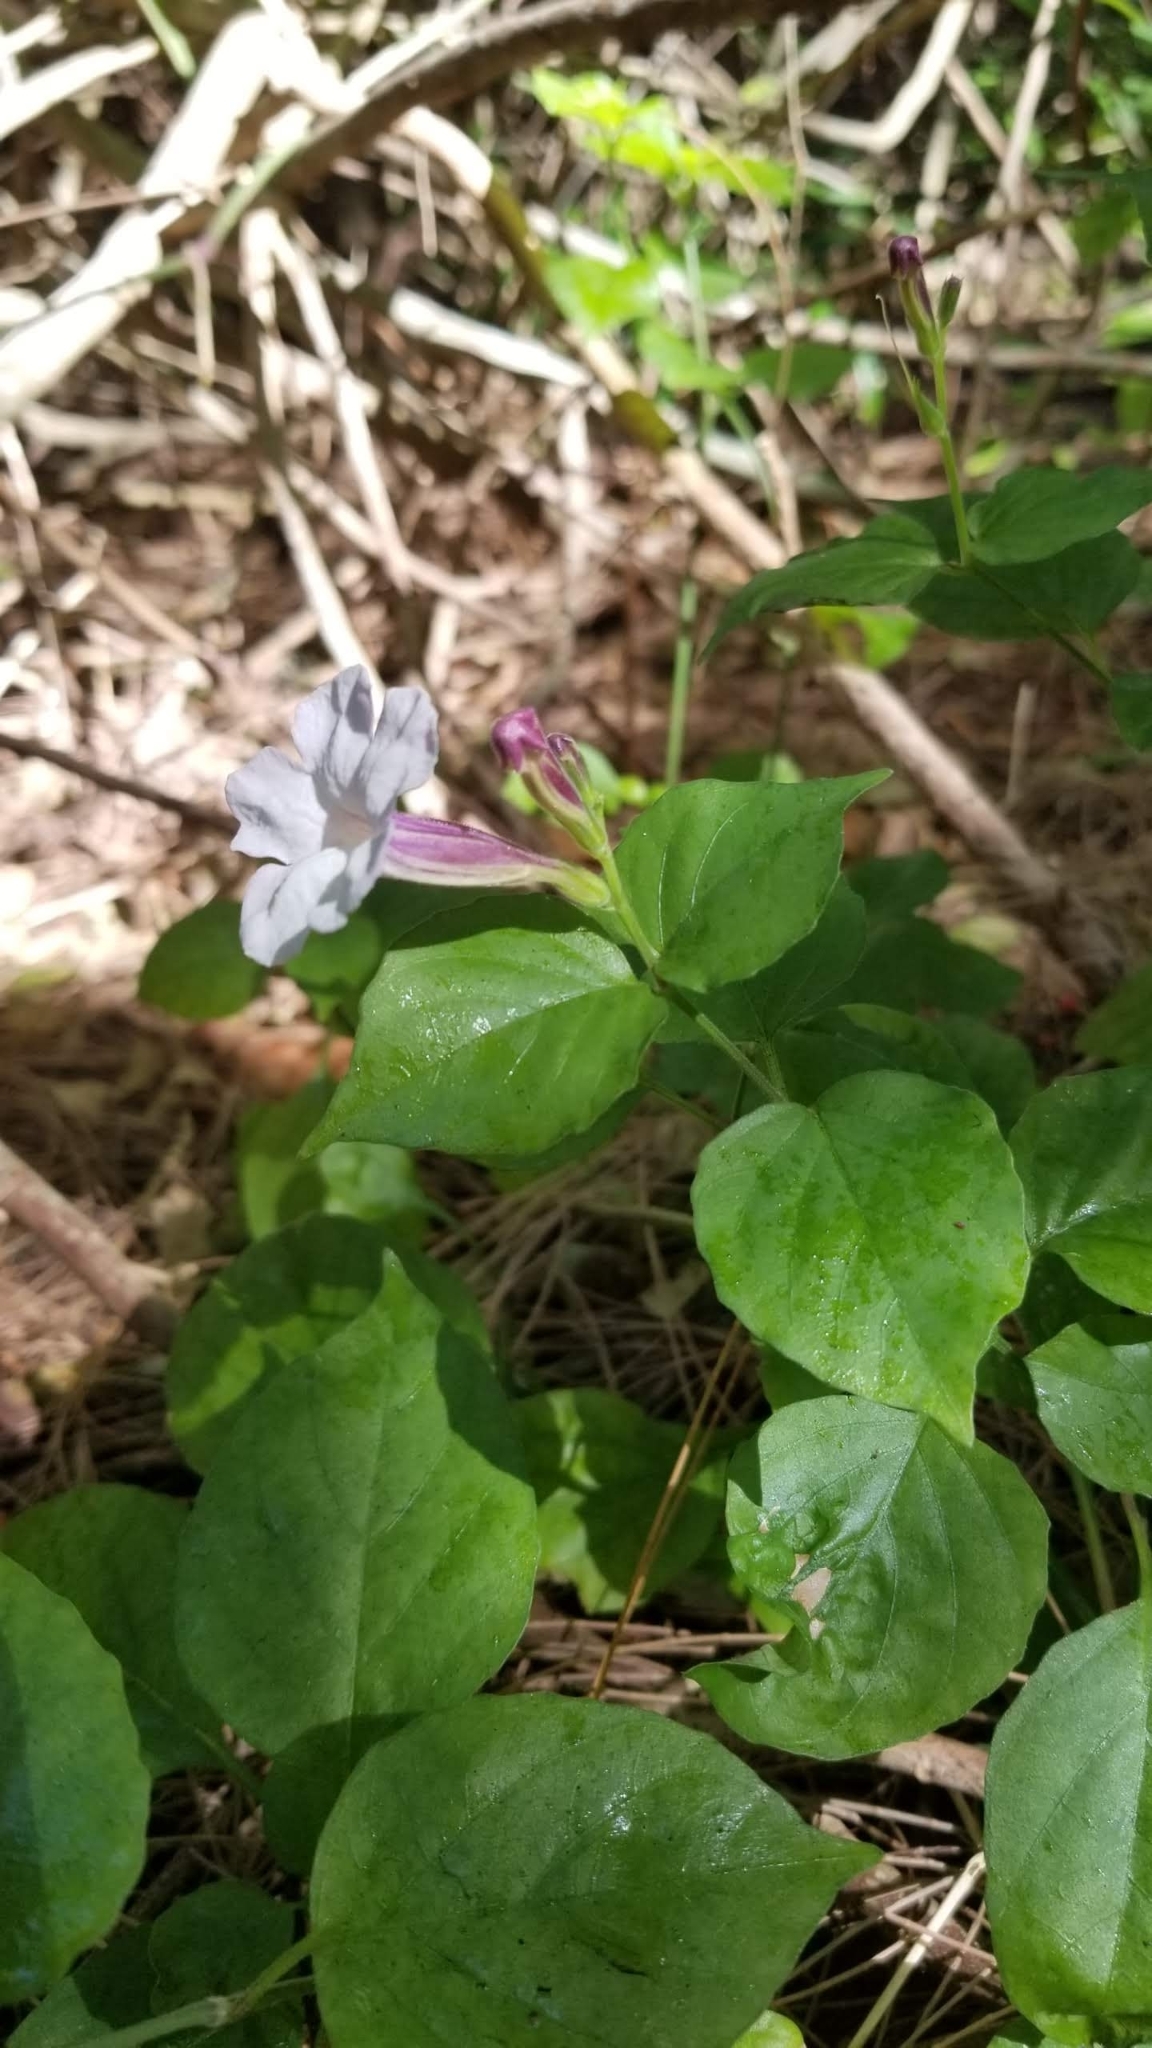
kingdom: Plantae
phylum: Tracheophyta
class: Magnoliopsida
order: Lamiales
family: Acanthaceae
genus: Asystasia
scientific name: Asystasia gangetica
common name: Chinese violet
